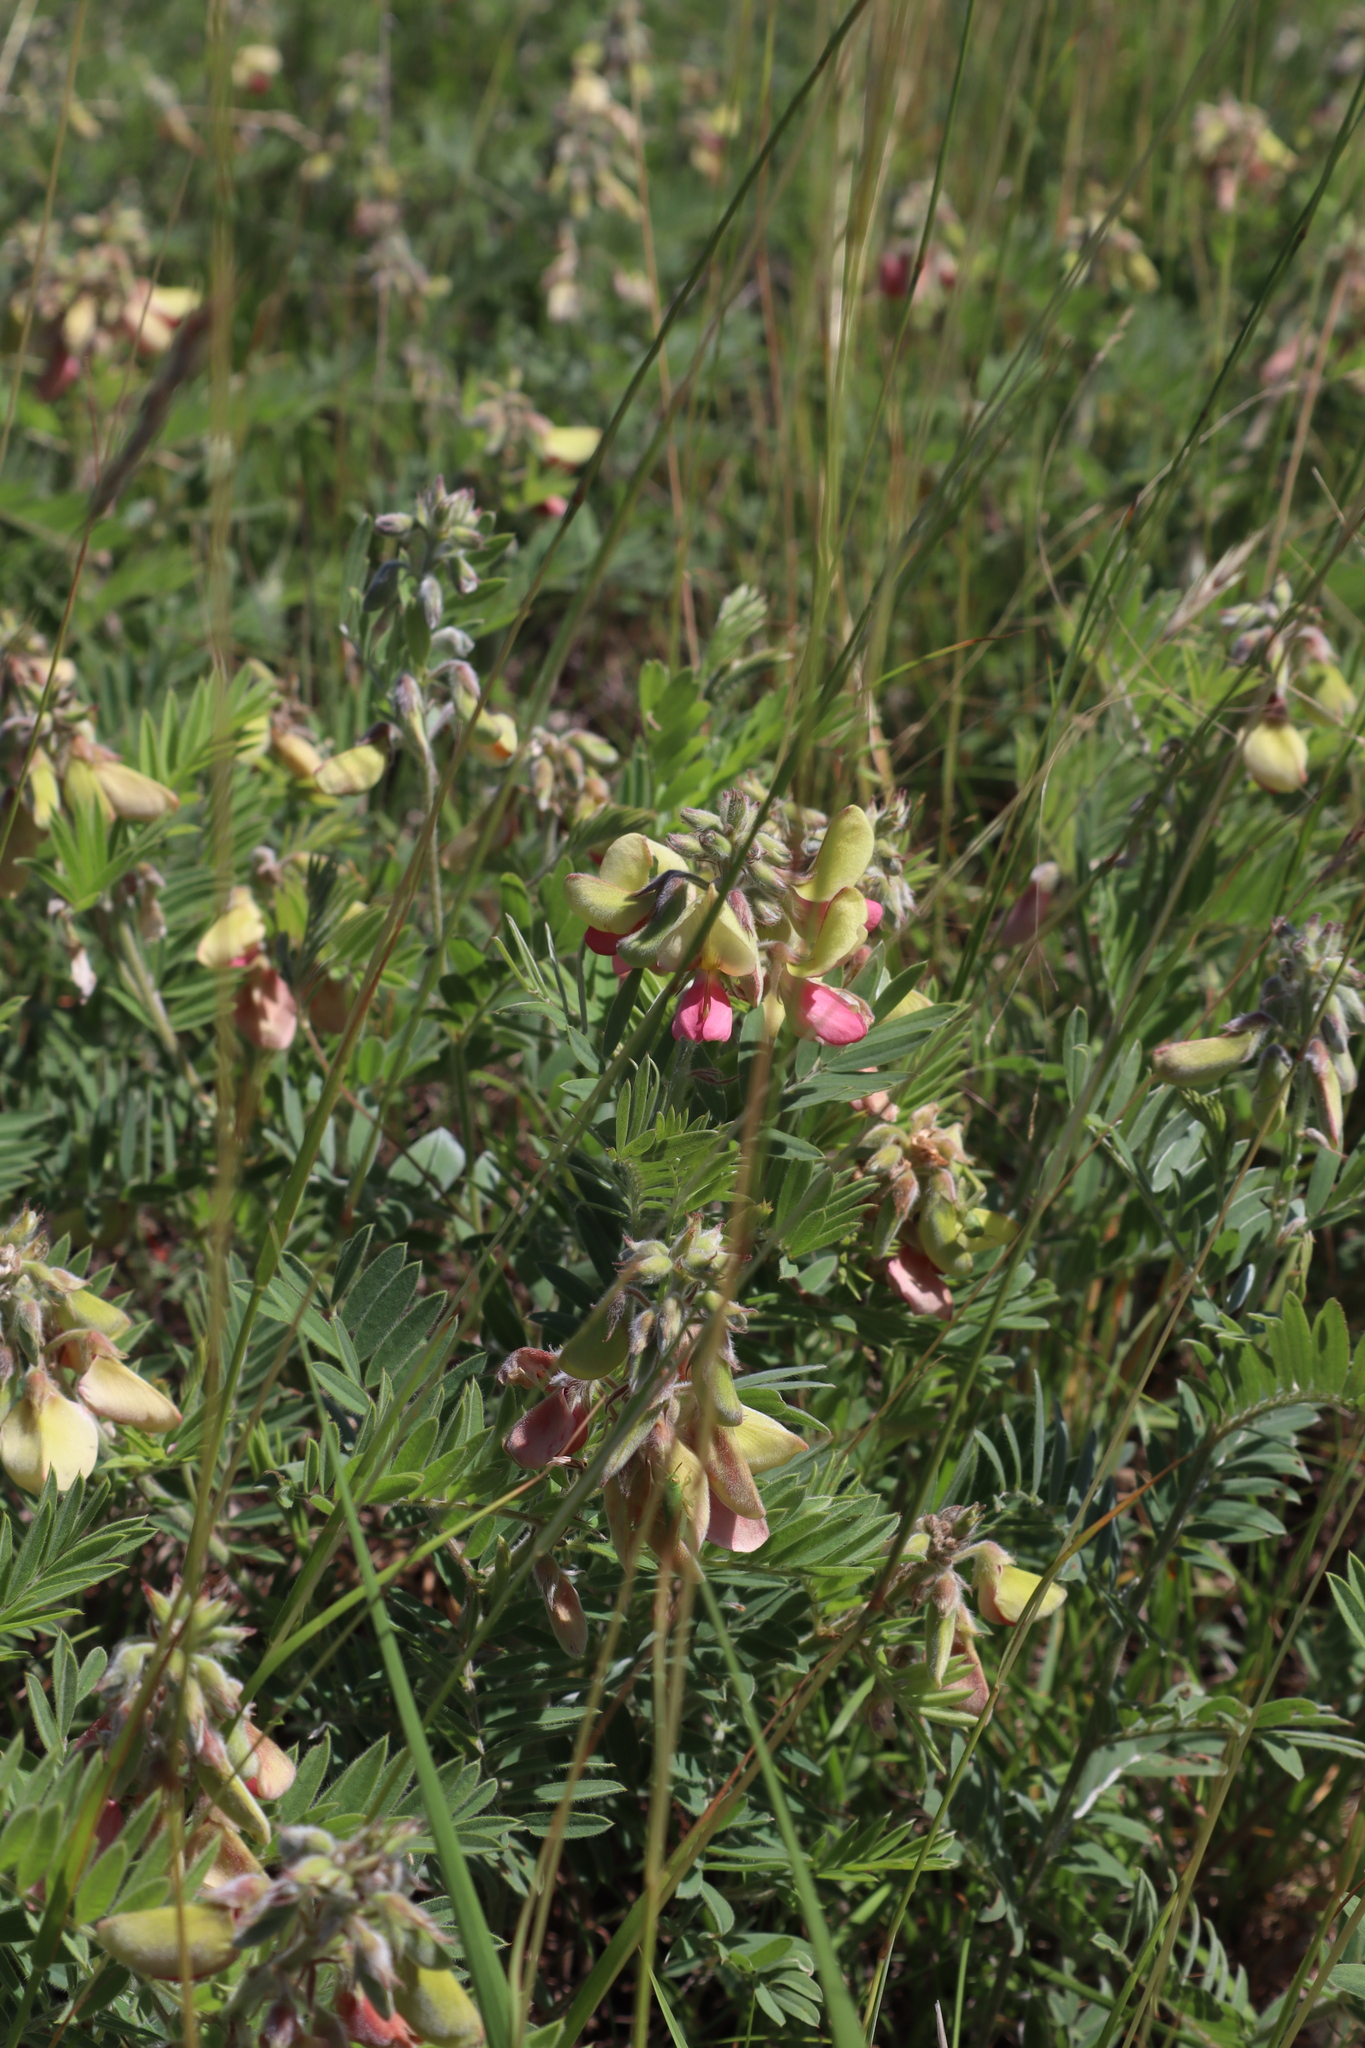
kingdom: Plantae
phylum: Tracheophyta
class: Magnoliopsida
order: Fabales
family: Fabaceae
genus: Tephrosia
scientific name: Tephrosia virginiana
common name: Rabbit-pea
